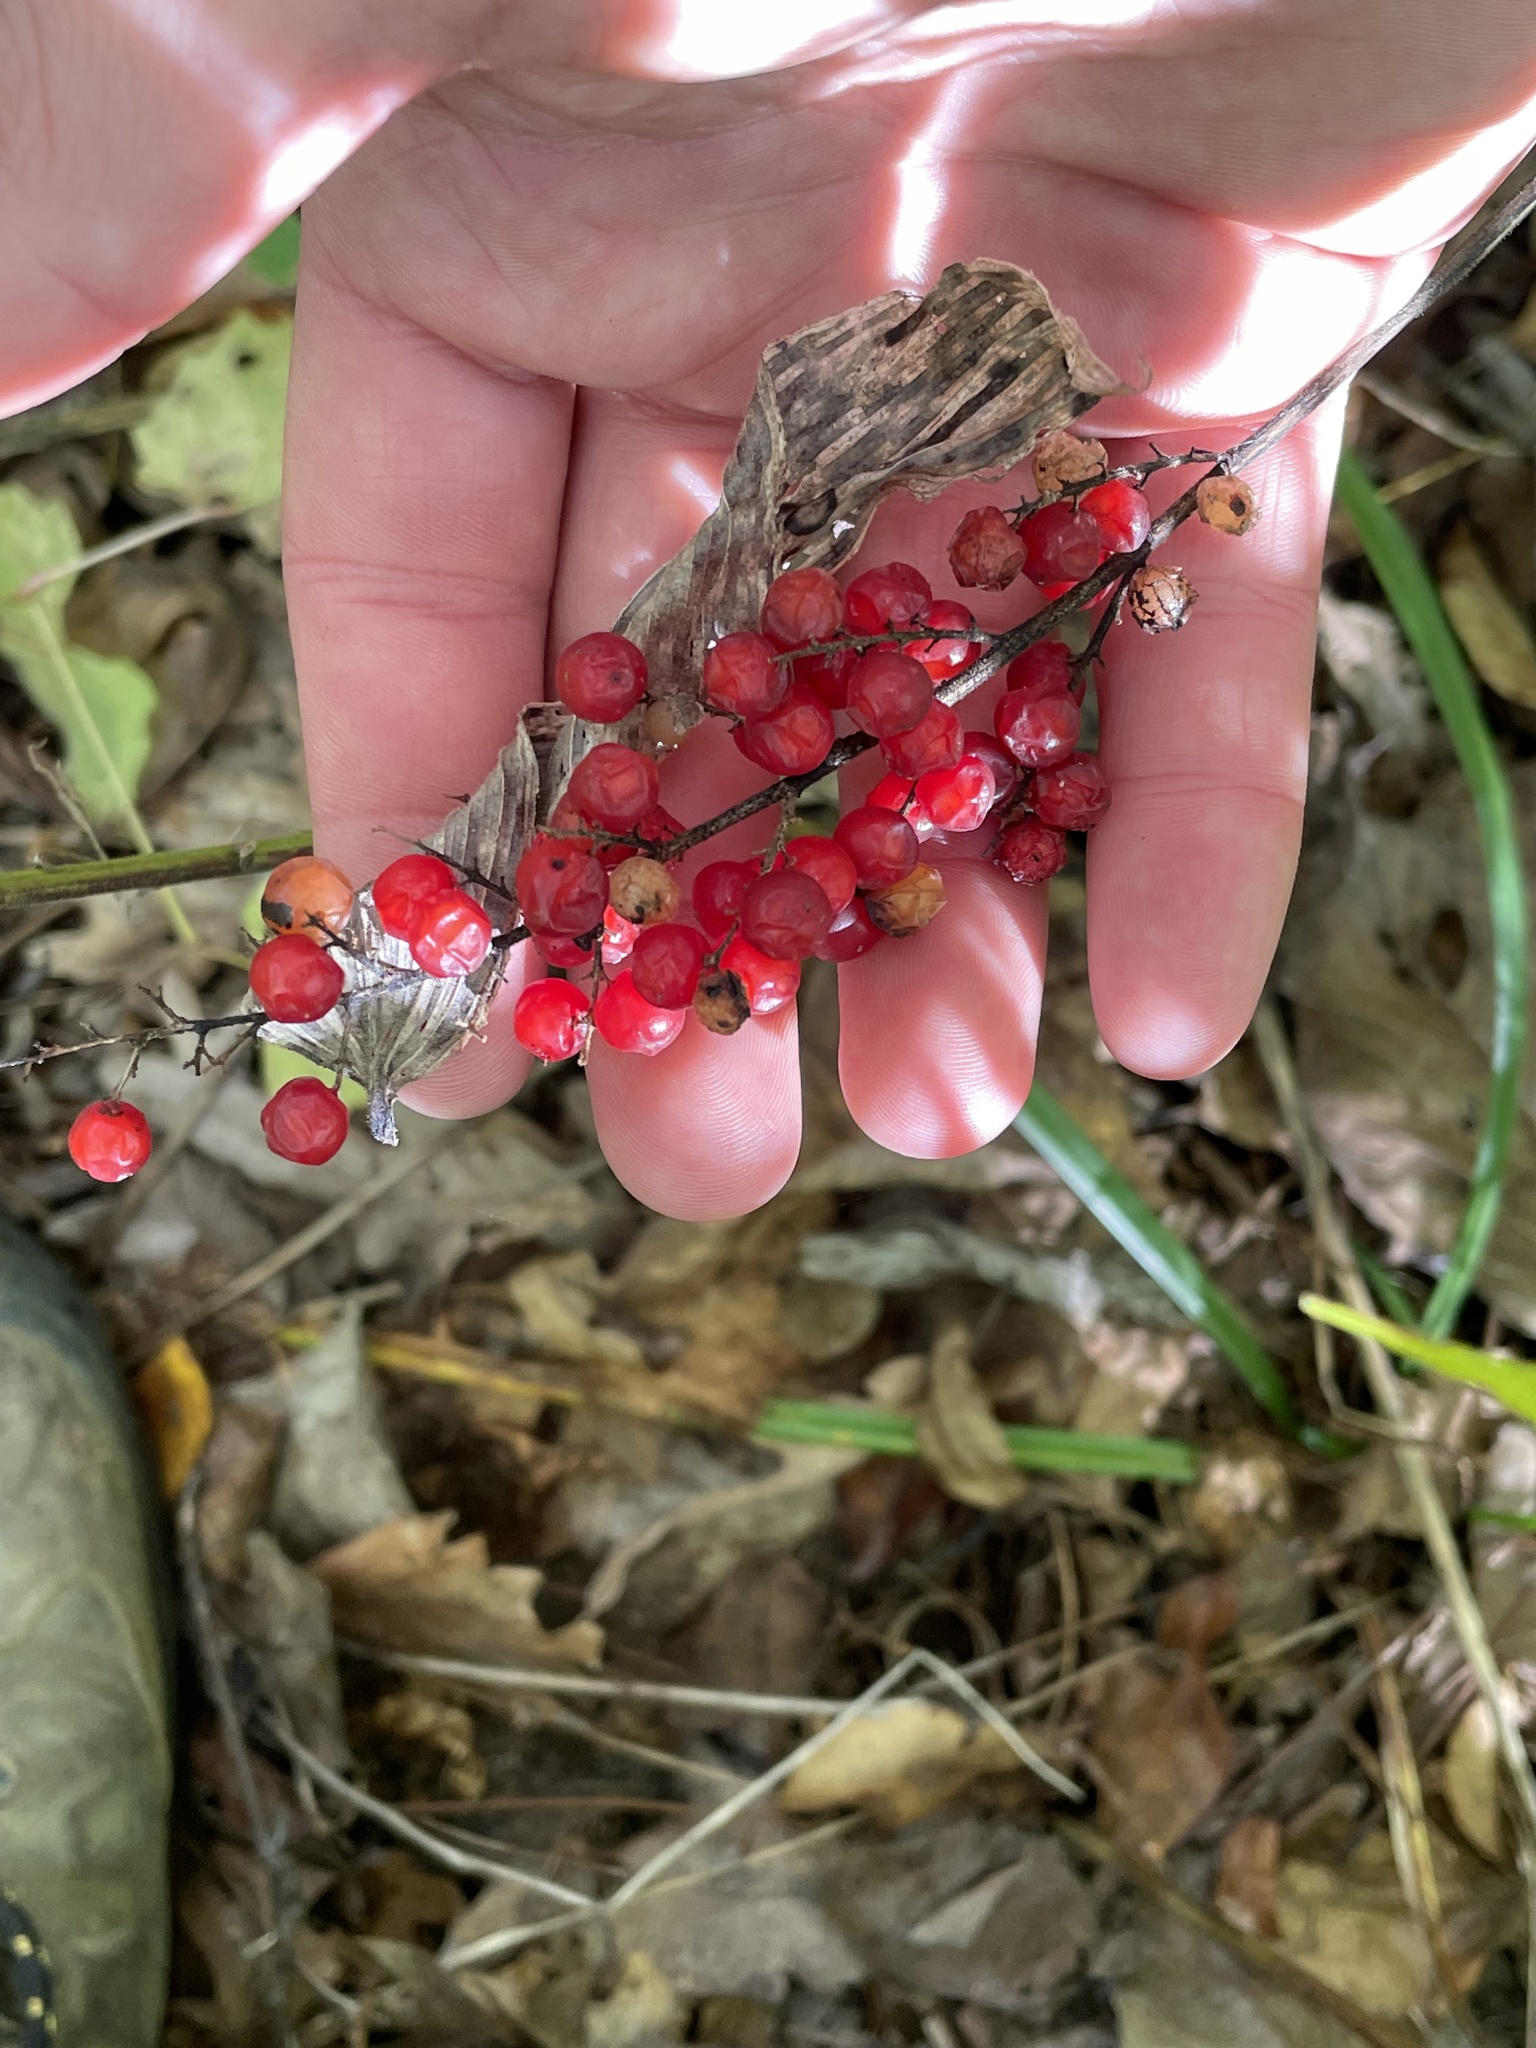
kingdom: Plantae
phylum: Tracheophyta
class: Liliopsida
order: Asparagales
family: Asparagaceae
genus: Maianthemum
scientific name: Maianthemum racemosum
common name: False spikenard
